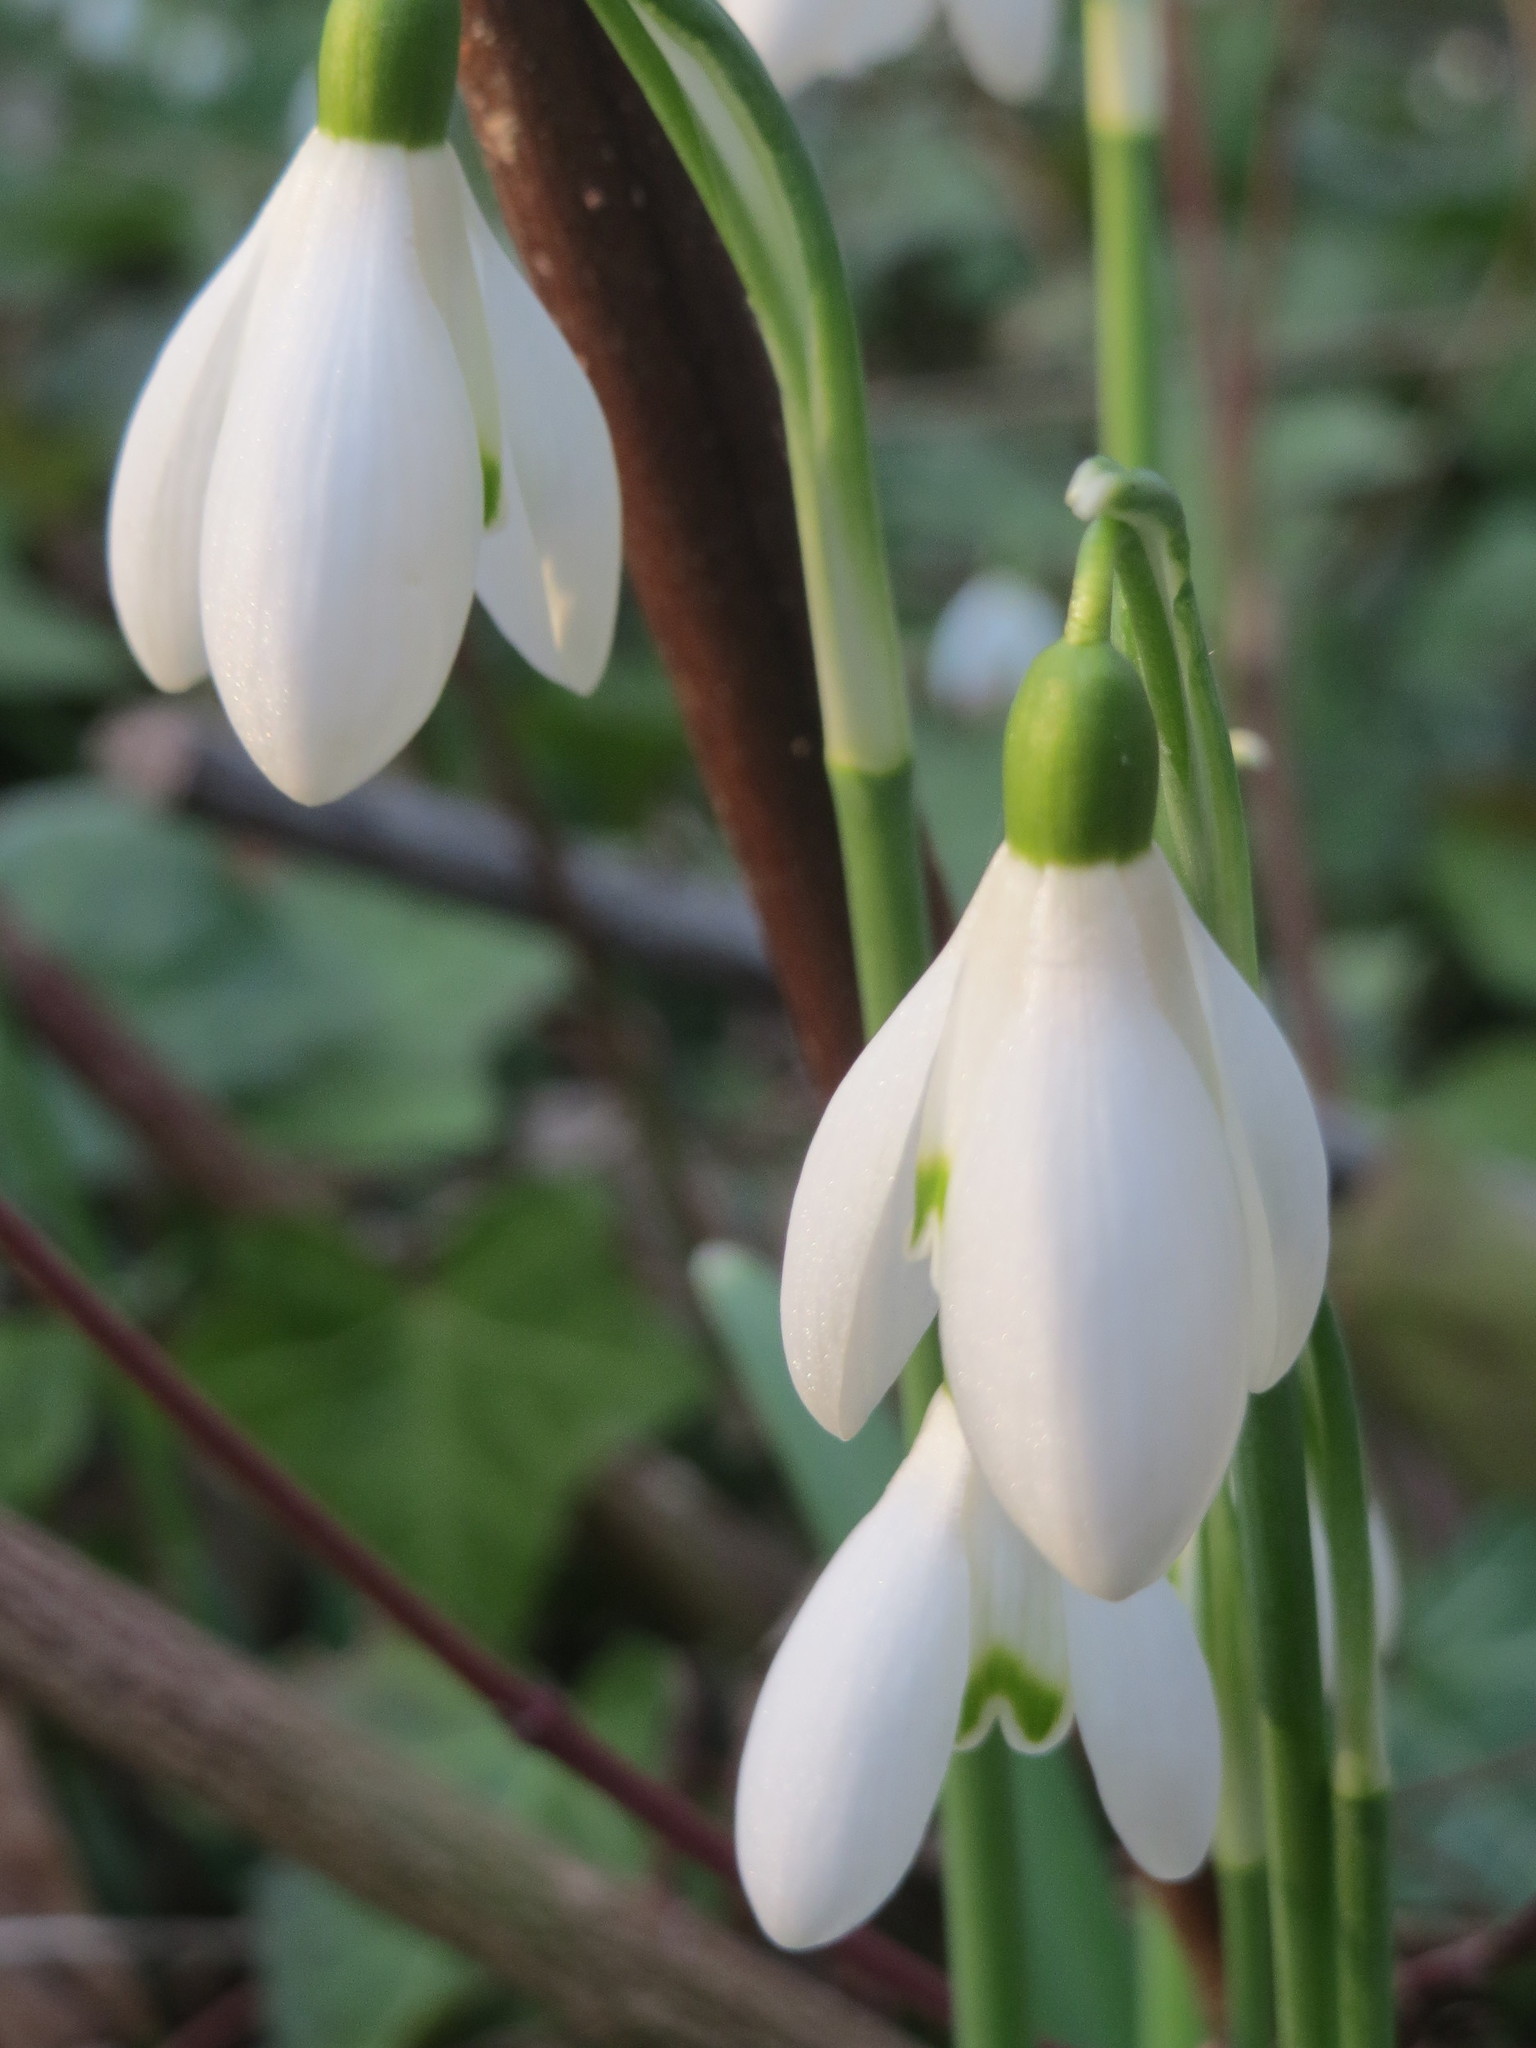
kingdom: Plantae
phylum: Tracheophyta
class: Liliopsida
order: Asparagales
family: Amaryllidaceae
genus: Galanthus
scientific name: Galanthus nivalis
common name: Snowdrop
